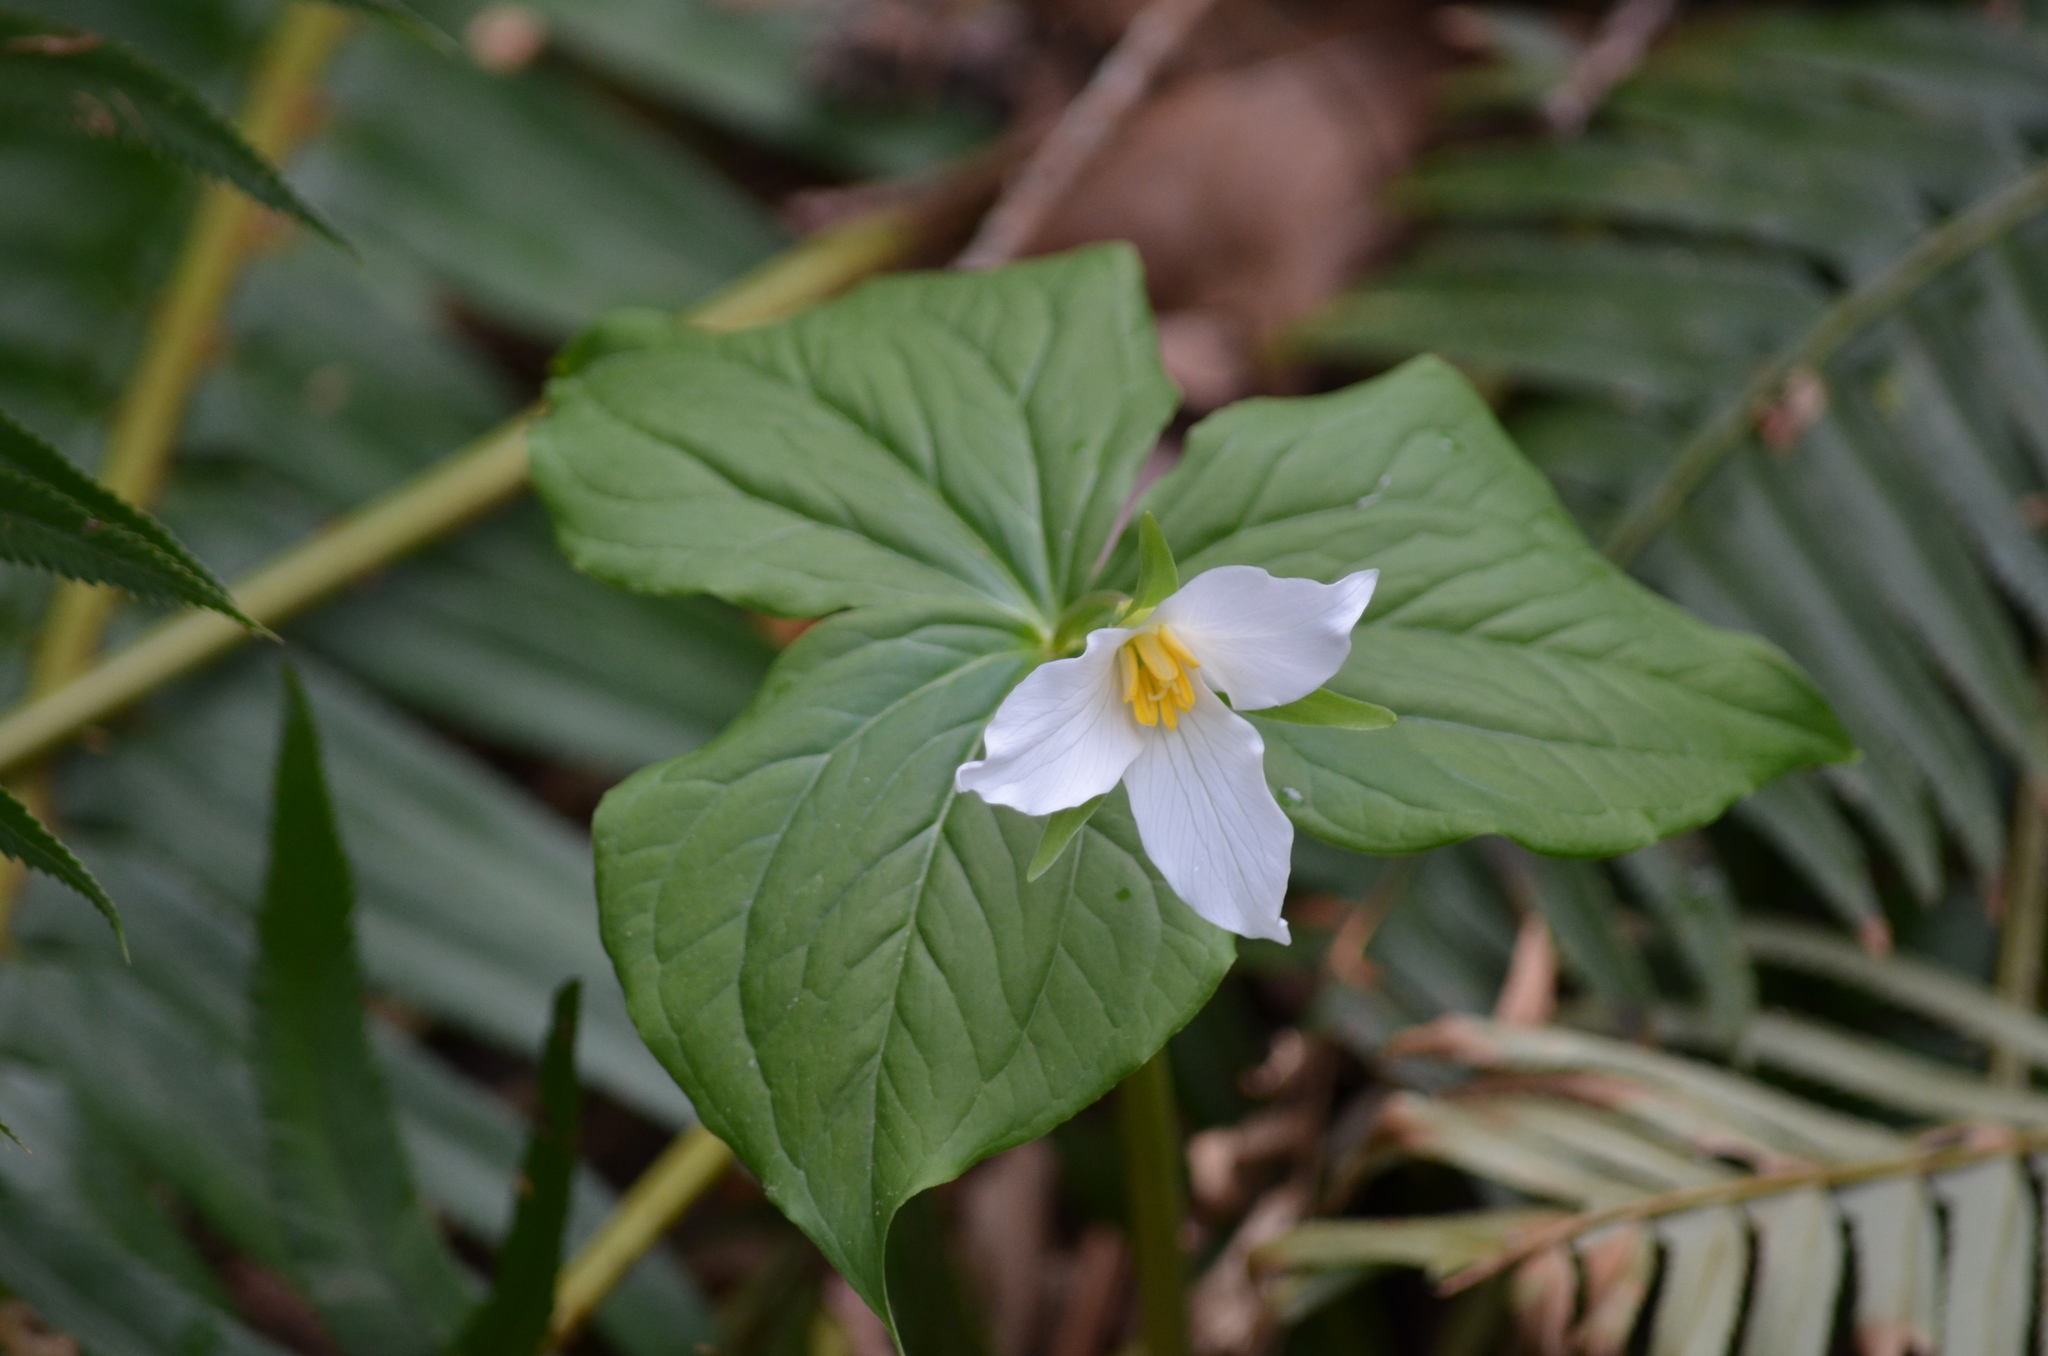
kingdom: Plantae
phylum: Tracheophyta
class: Liliopsida
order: Liliales
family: Melanthiaceae
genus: Trillium
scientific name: Trillium ovatum
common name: Pacific trillium
